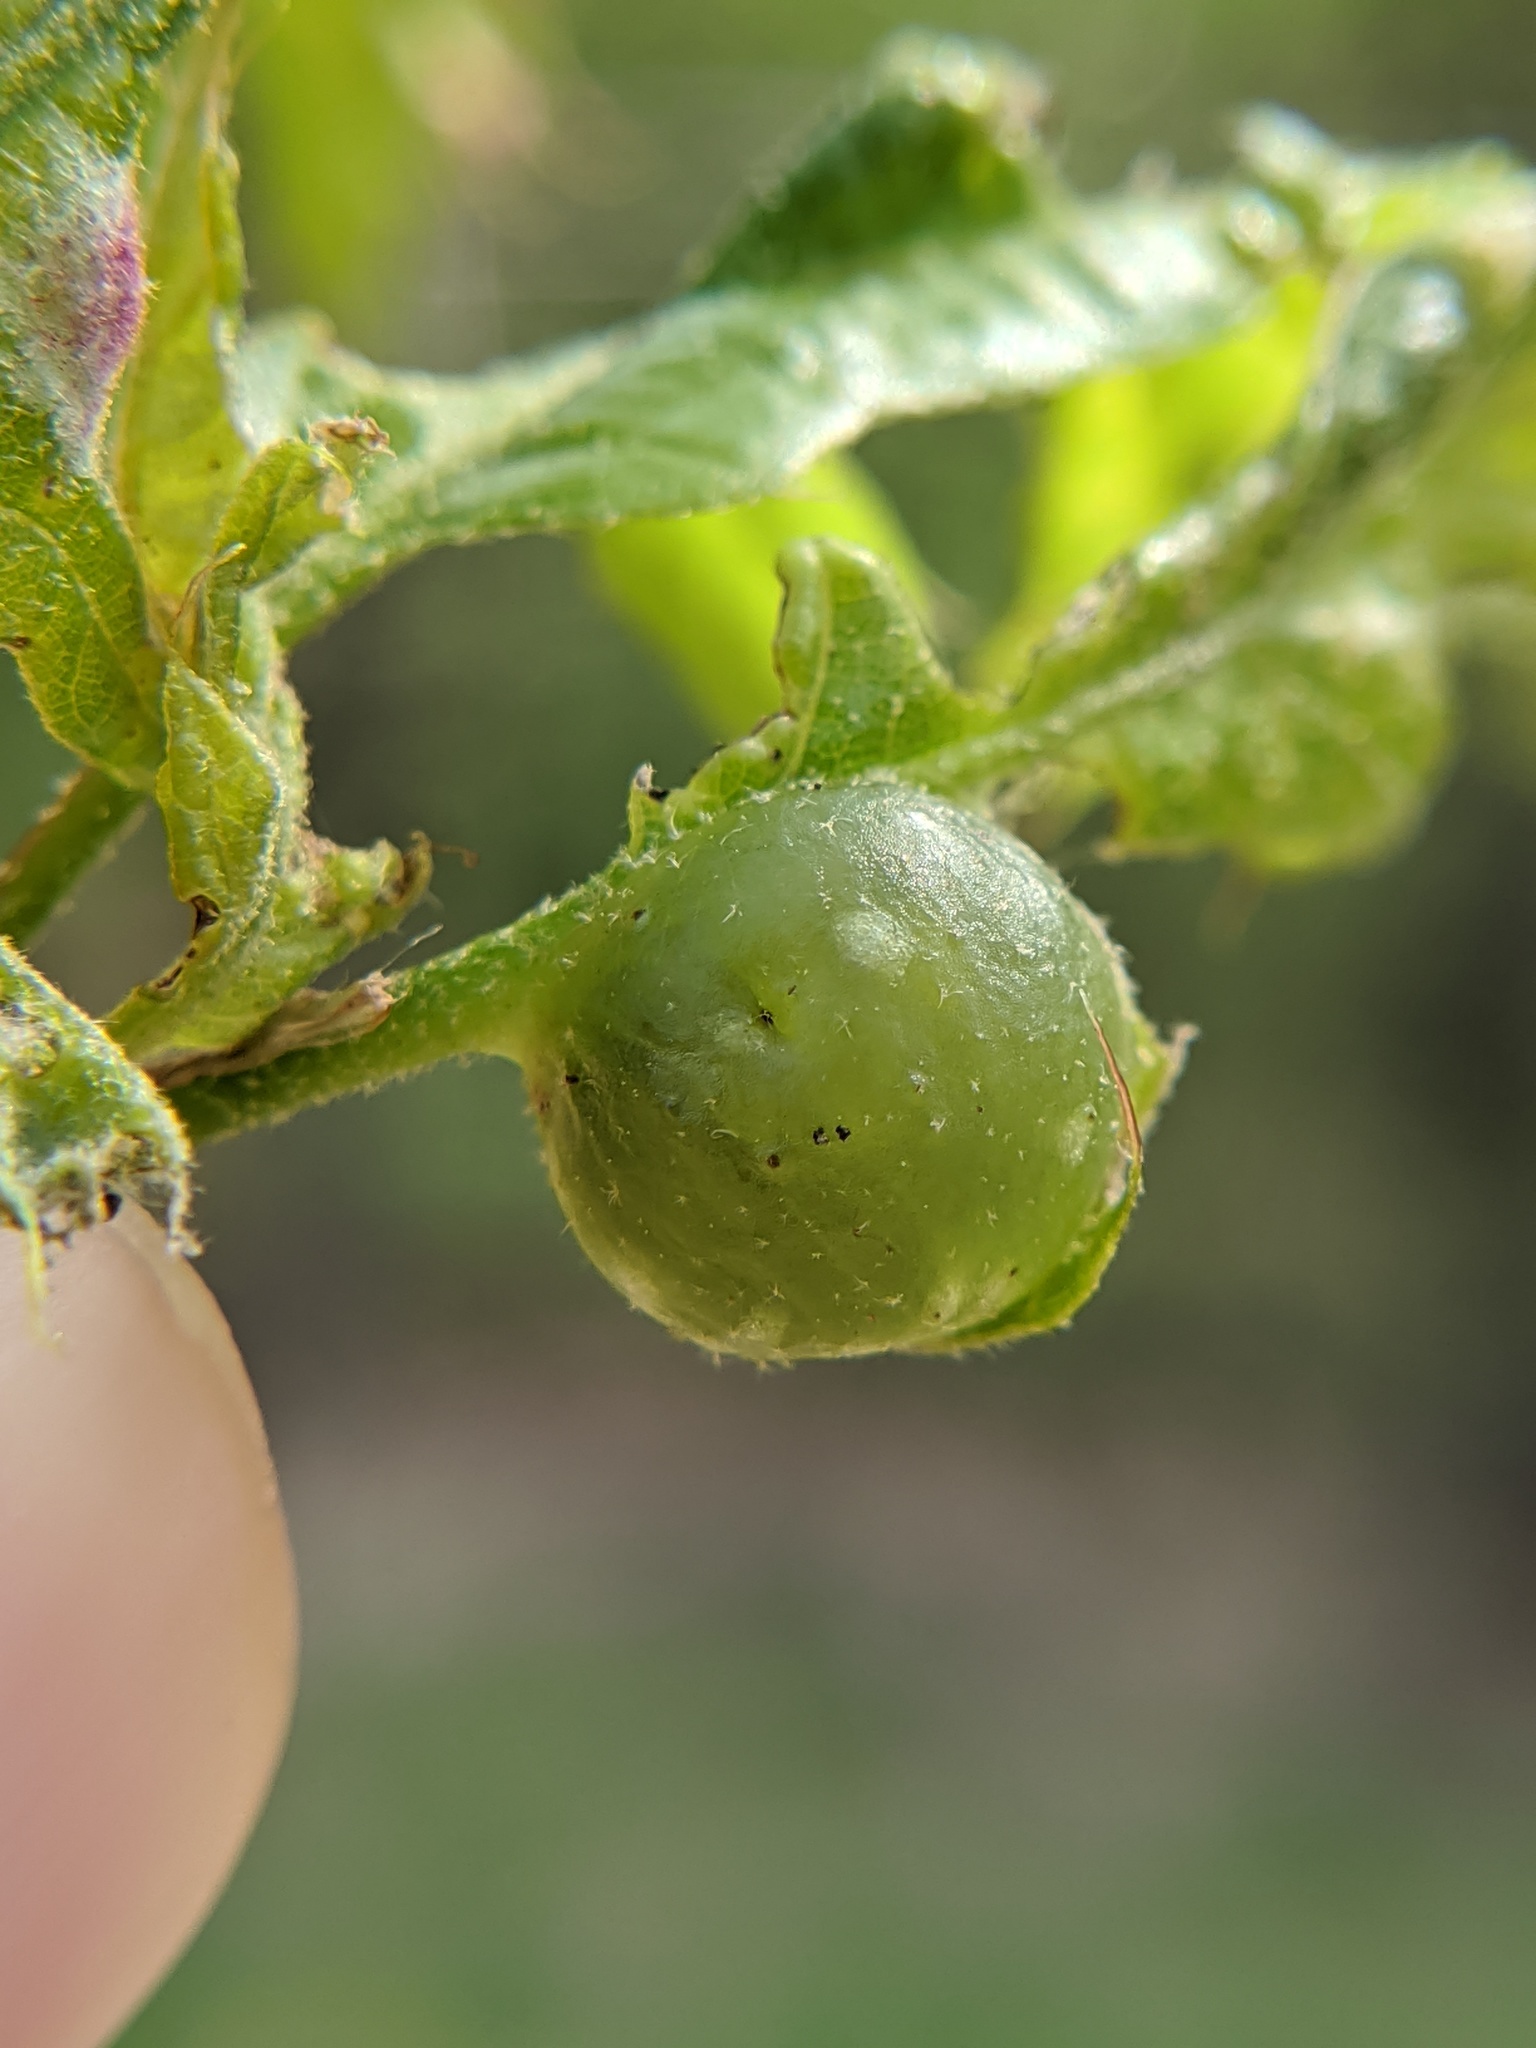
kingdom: Animalia
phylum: Arthropoda
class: Insecta
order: Hymenoptera
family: Cynipidae
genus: Dryocosmus
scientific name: Dryocosmus quercuspalustris
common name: Succulent oak gall wasp
